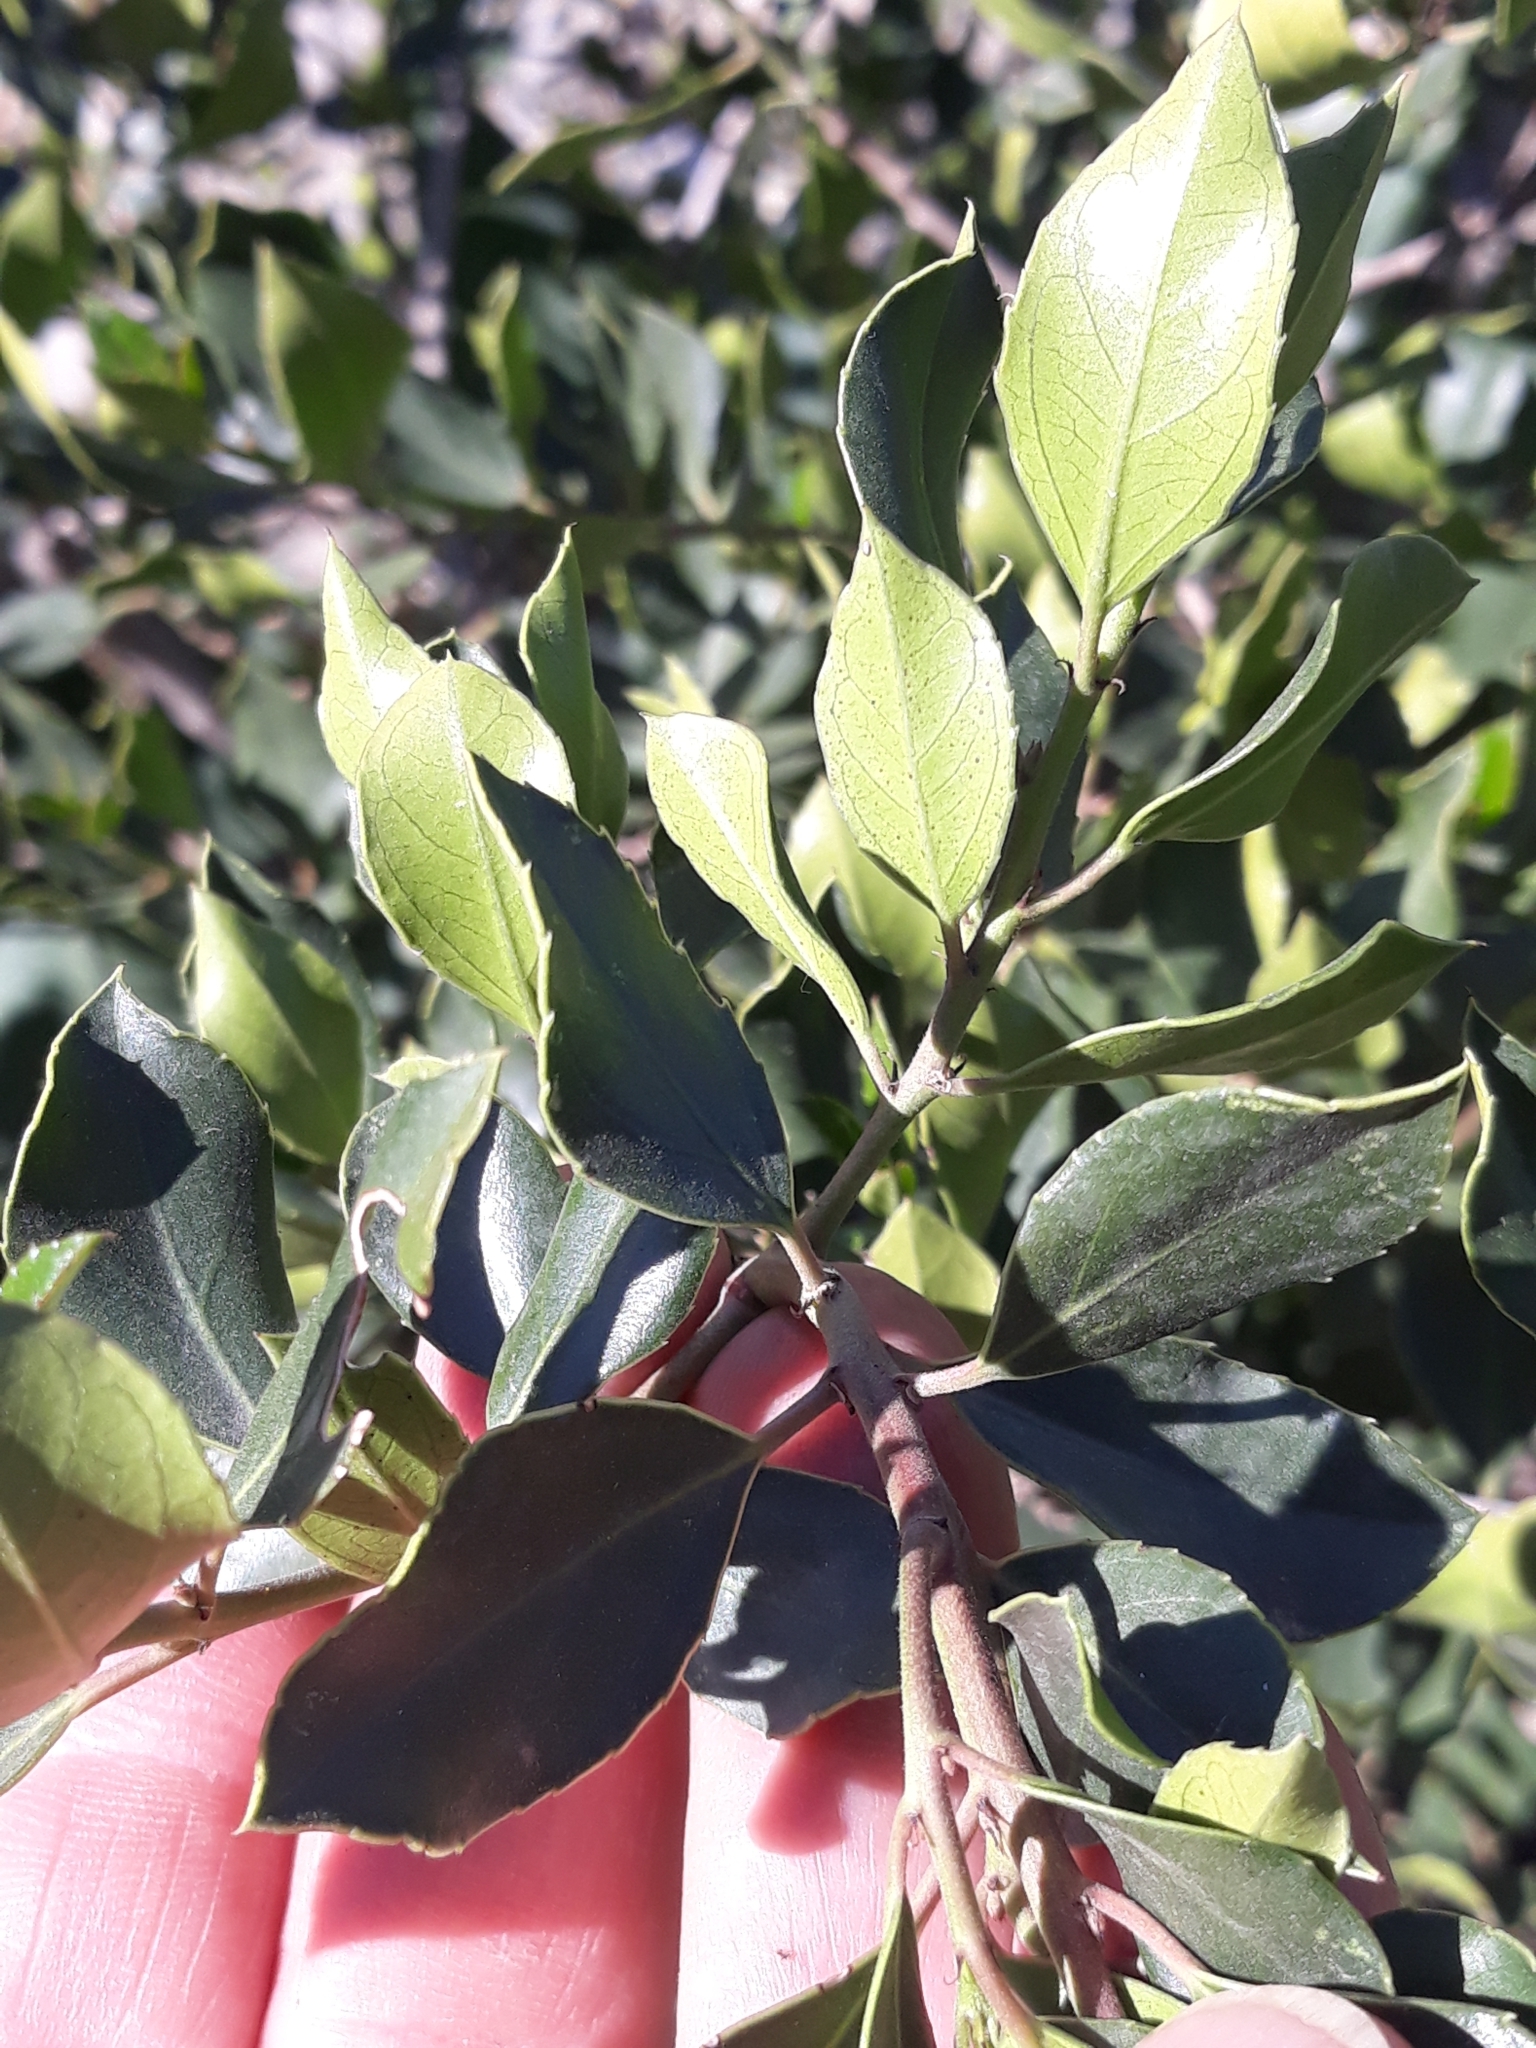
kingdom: Plantae
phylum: Tracheophyta
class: Magnoliopsida
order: Rosales
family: Rhamnaceae
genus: Rhamnus
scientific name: Rhamnus alaternus
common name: Mediterranean buckthorn
